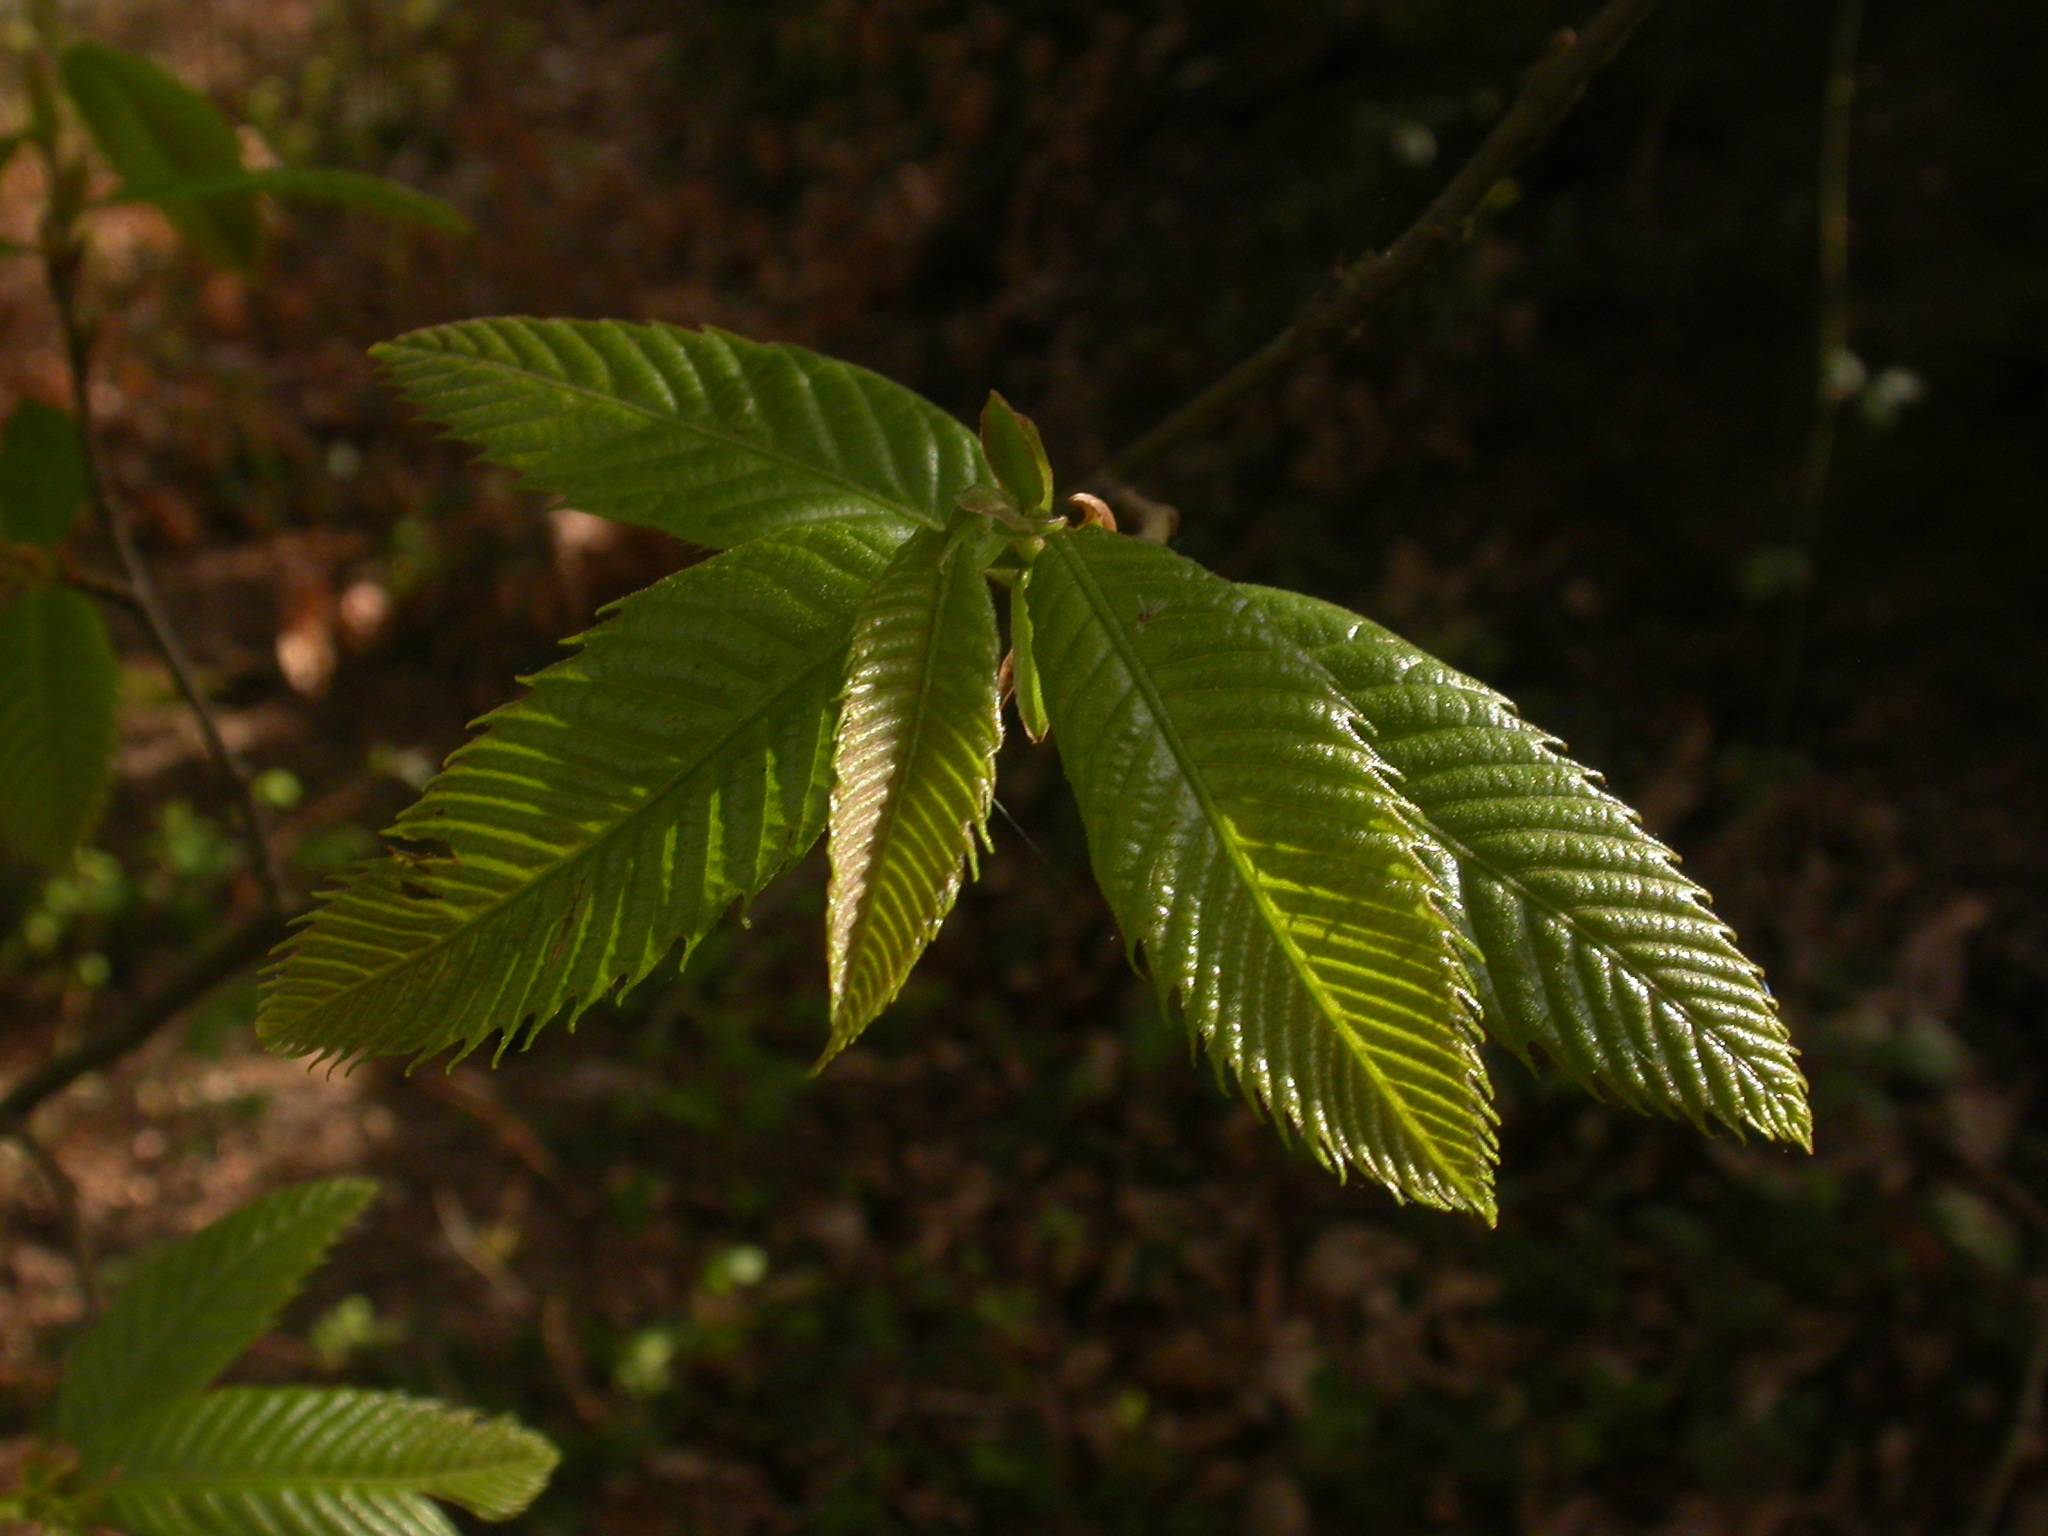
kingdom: Plantae
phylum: Tracheophyta
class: Magnoliopsida
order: Fagales
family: Fagaceae
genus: Castanea
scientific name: Castanea sativa
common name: Sweet chestnut
